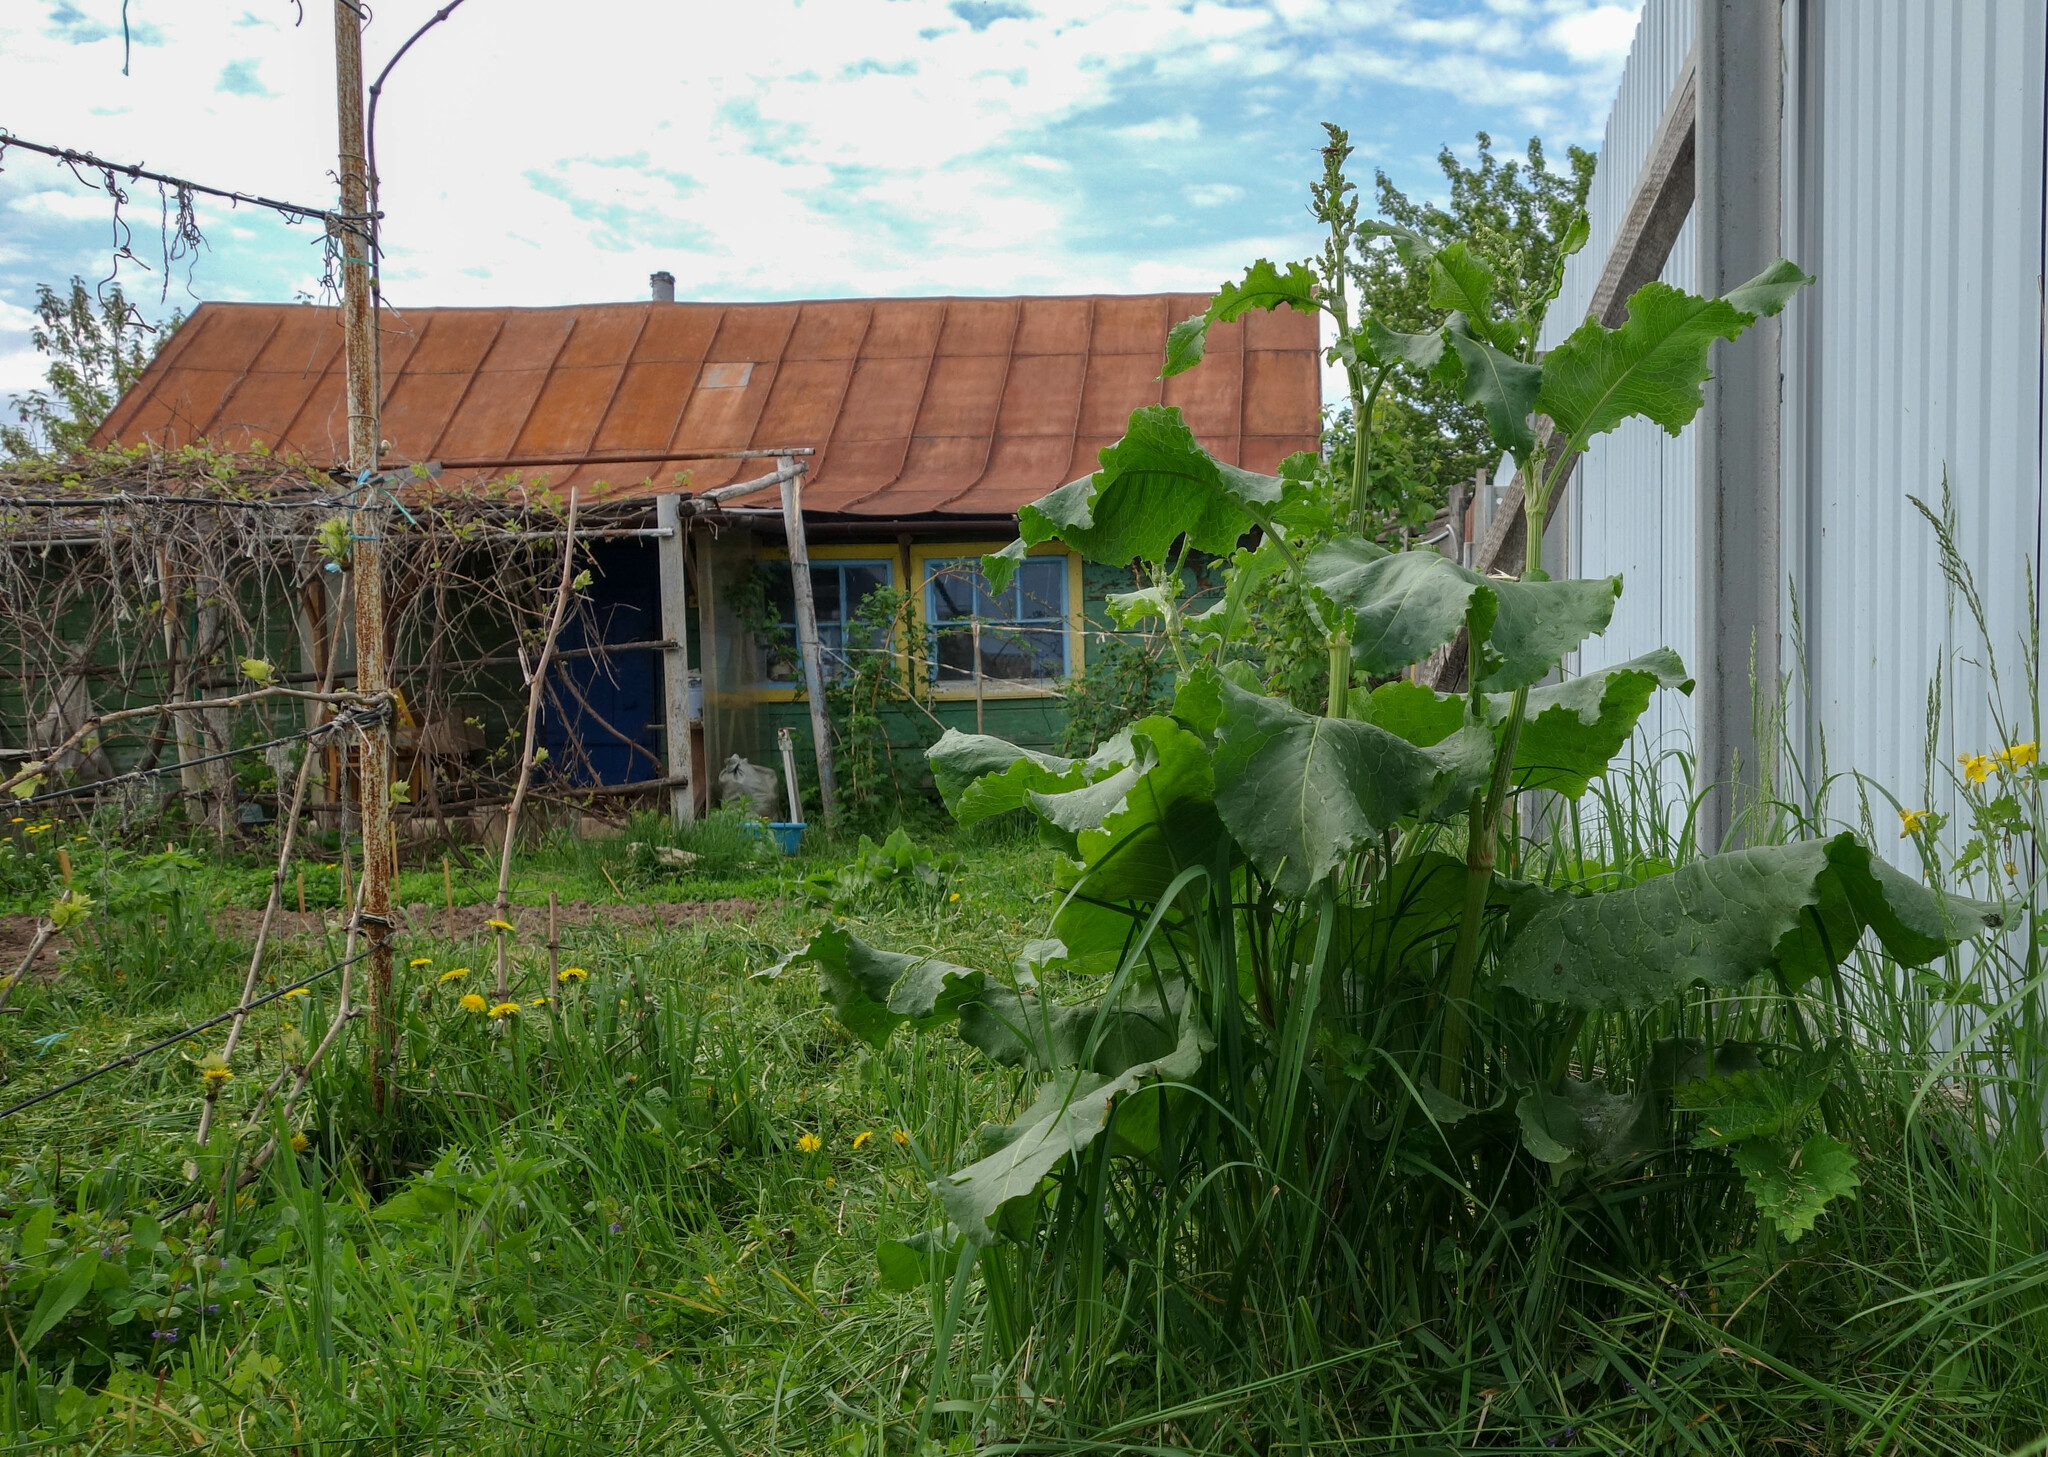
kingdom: Plantae
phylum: Tracheophyta
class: Magnoliopsida
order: Caryophyllales
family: Polygonaceae
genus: Rumex
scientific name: Rumex confertus
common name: Russian dock
